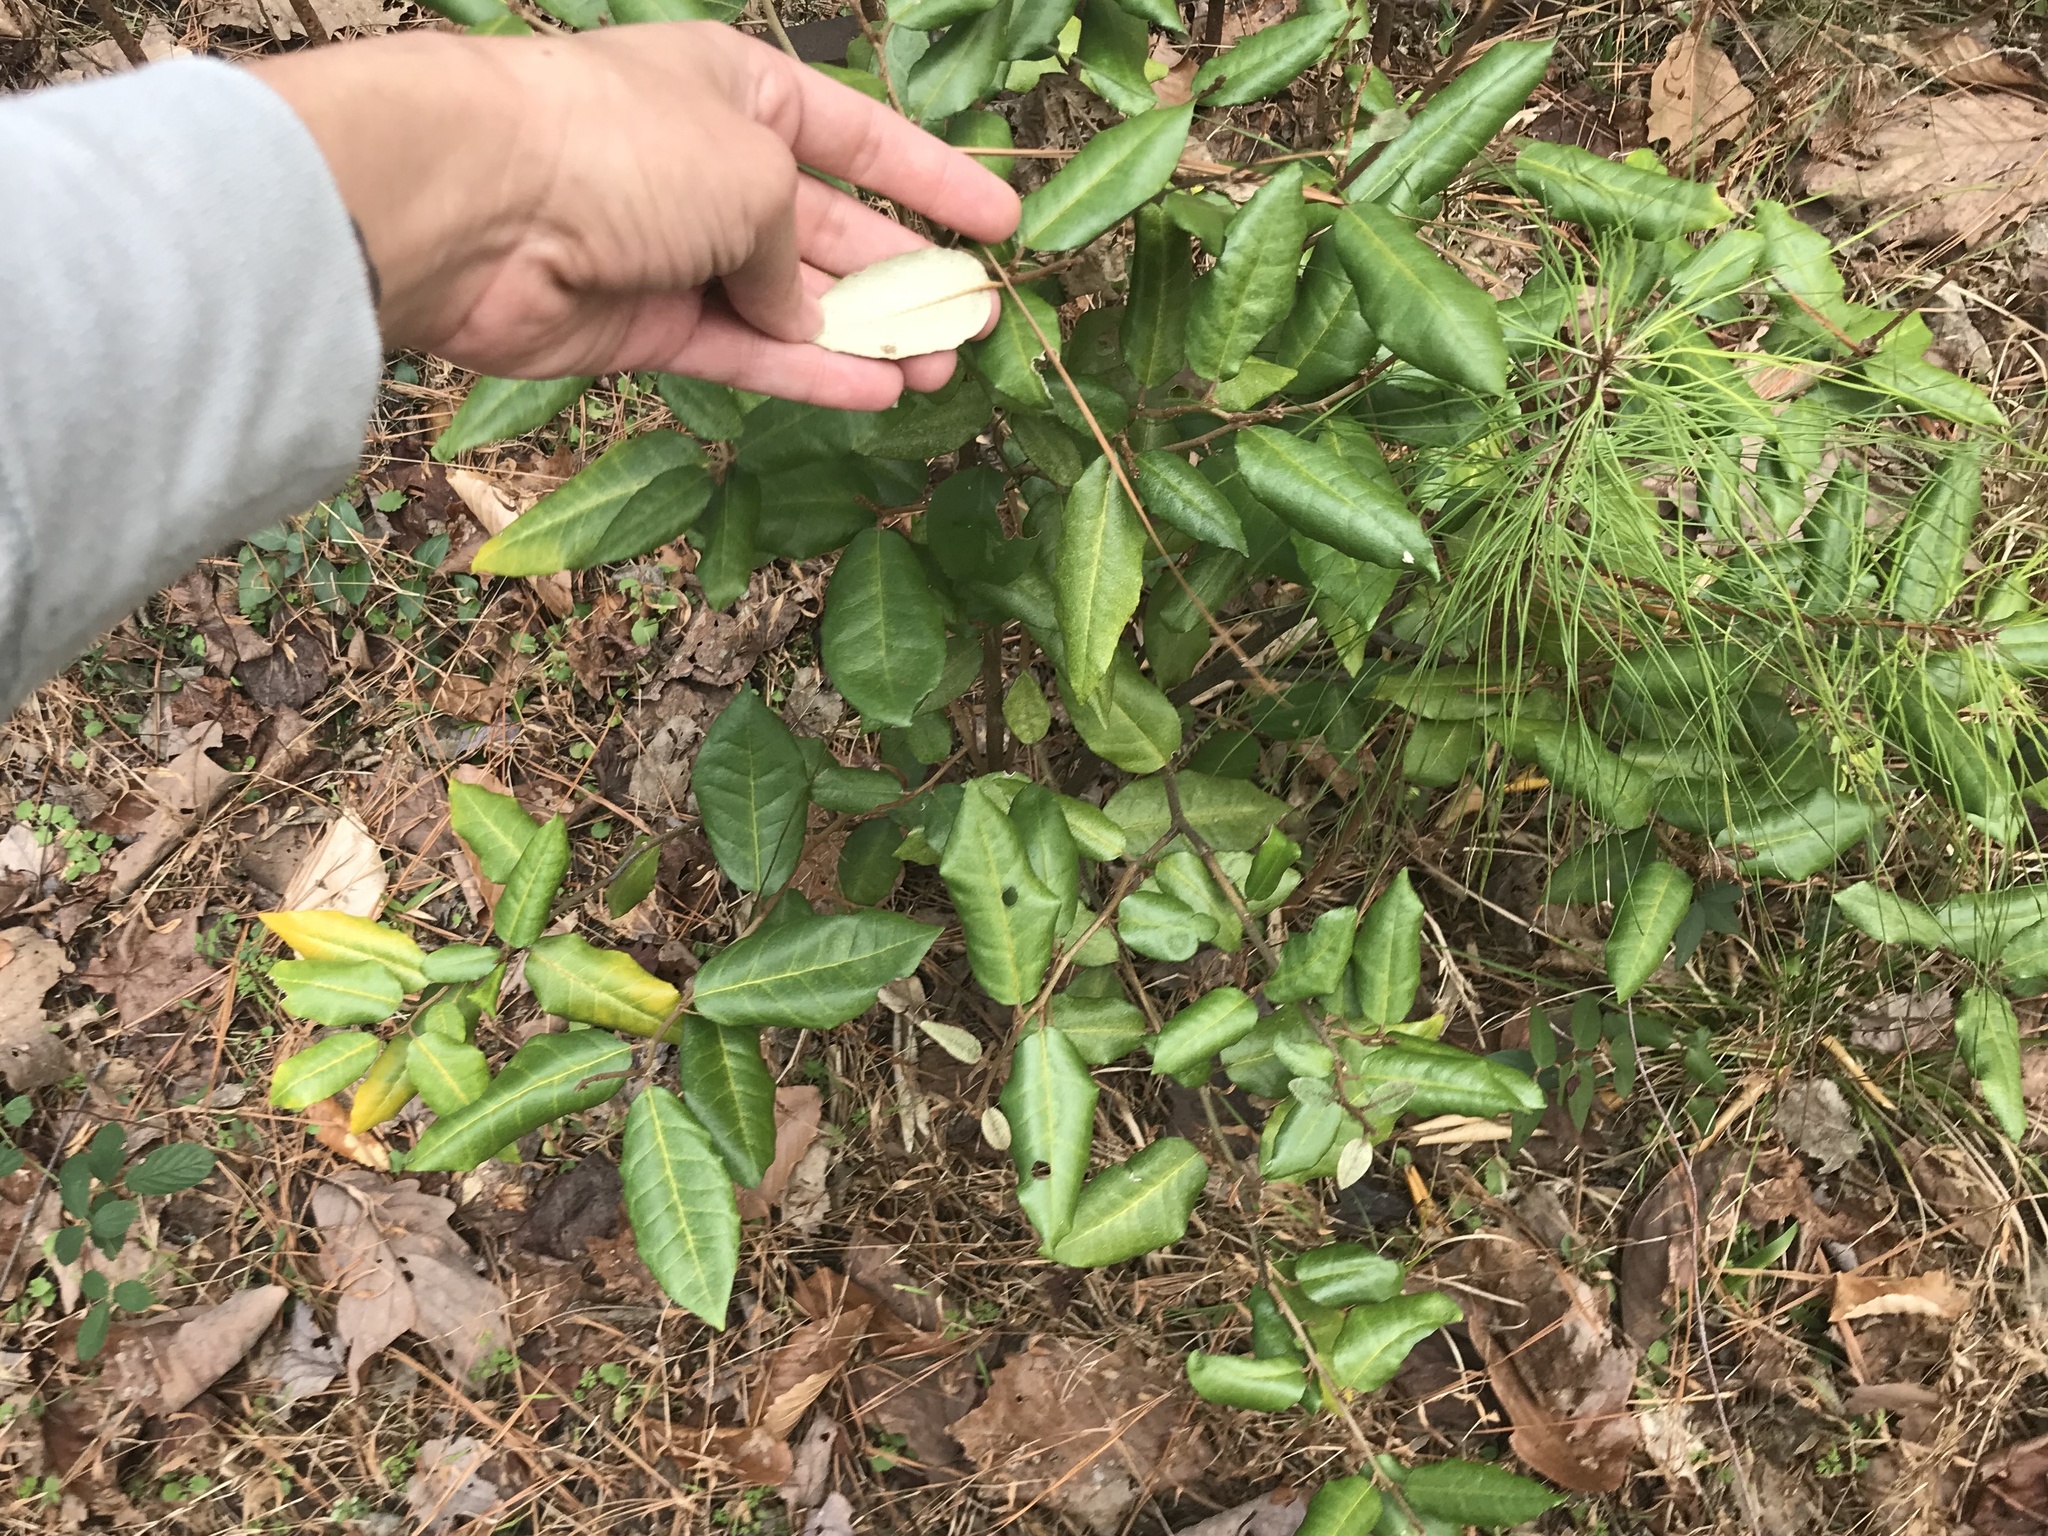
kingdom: Plantae
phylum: Tracheophyta
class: Magnoliopsida
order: Rosales
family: Elaeagnaceae
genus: Elaeagnus
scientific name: Elaeagnus pungens
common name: Spiny oleaster
